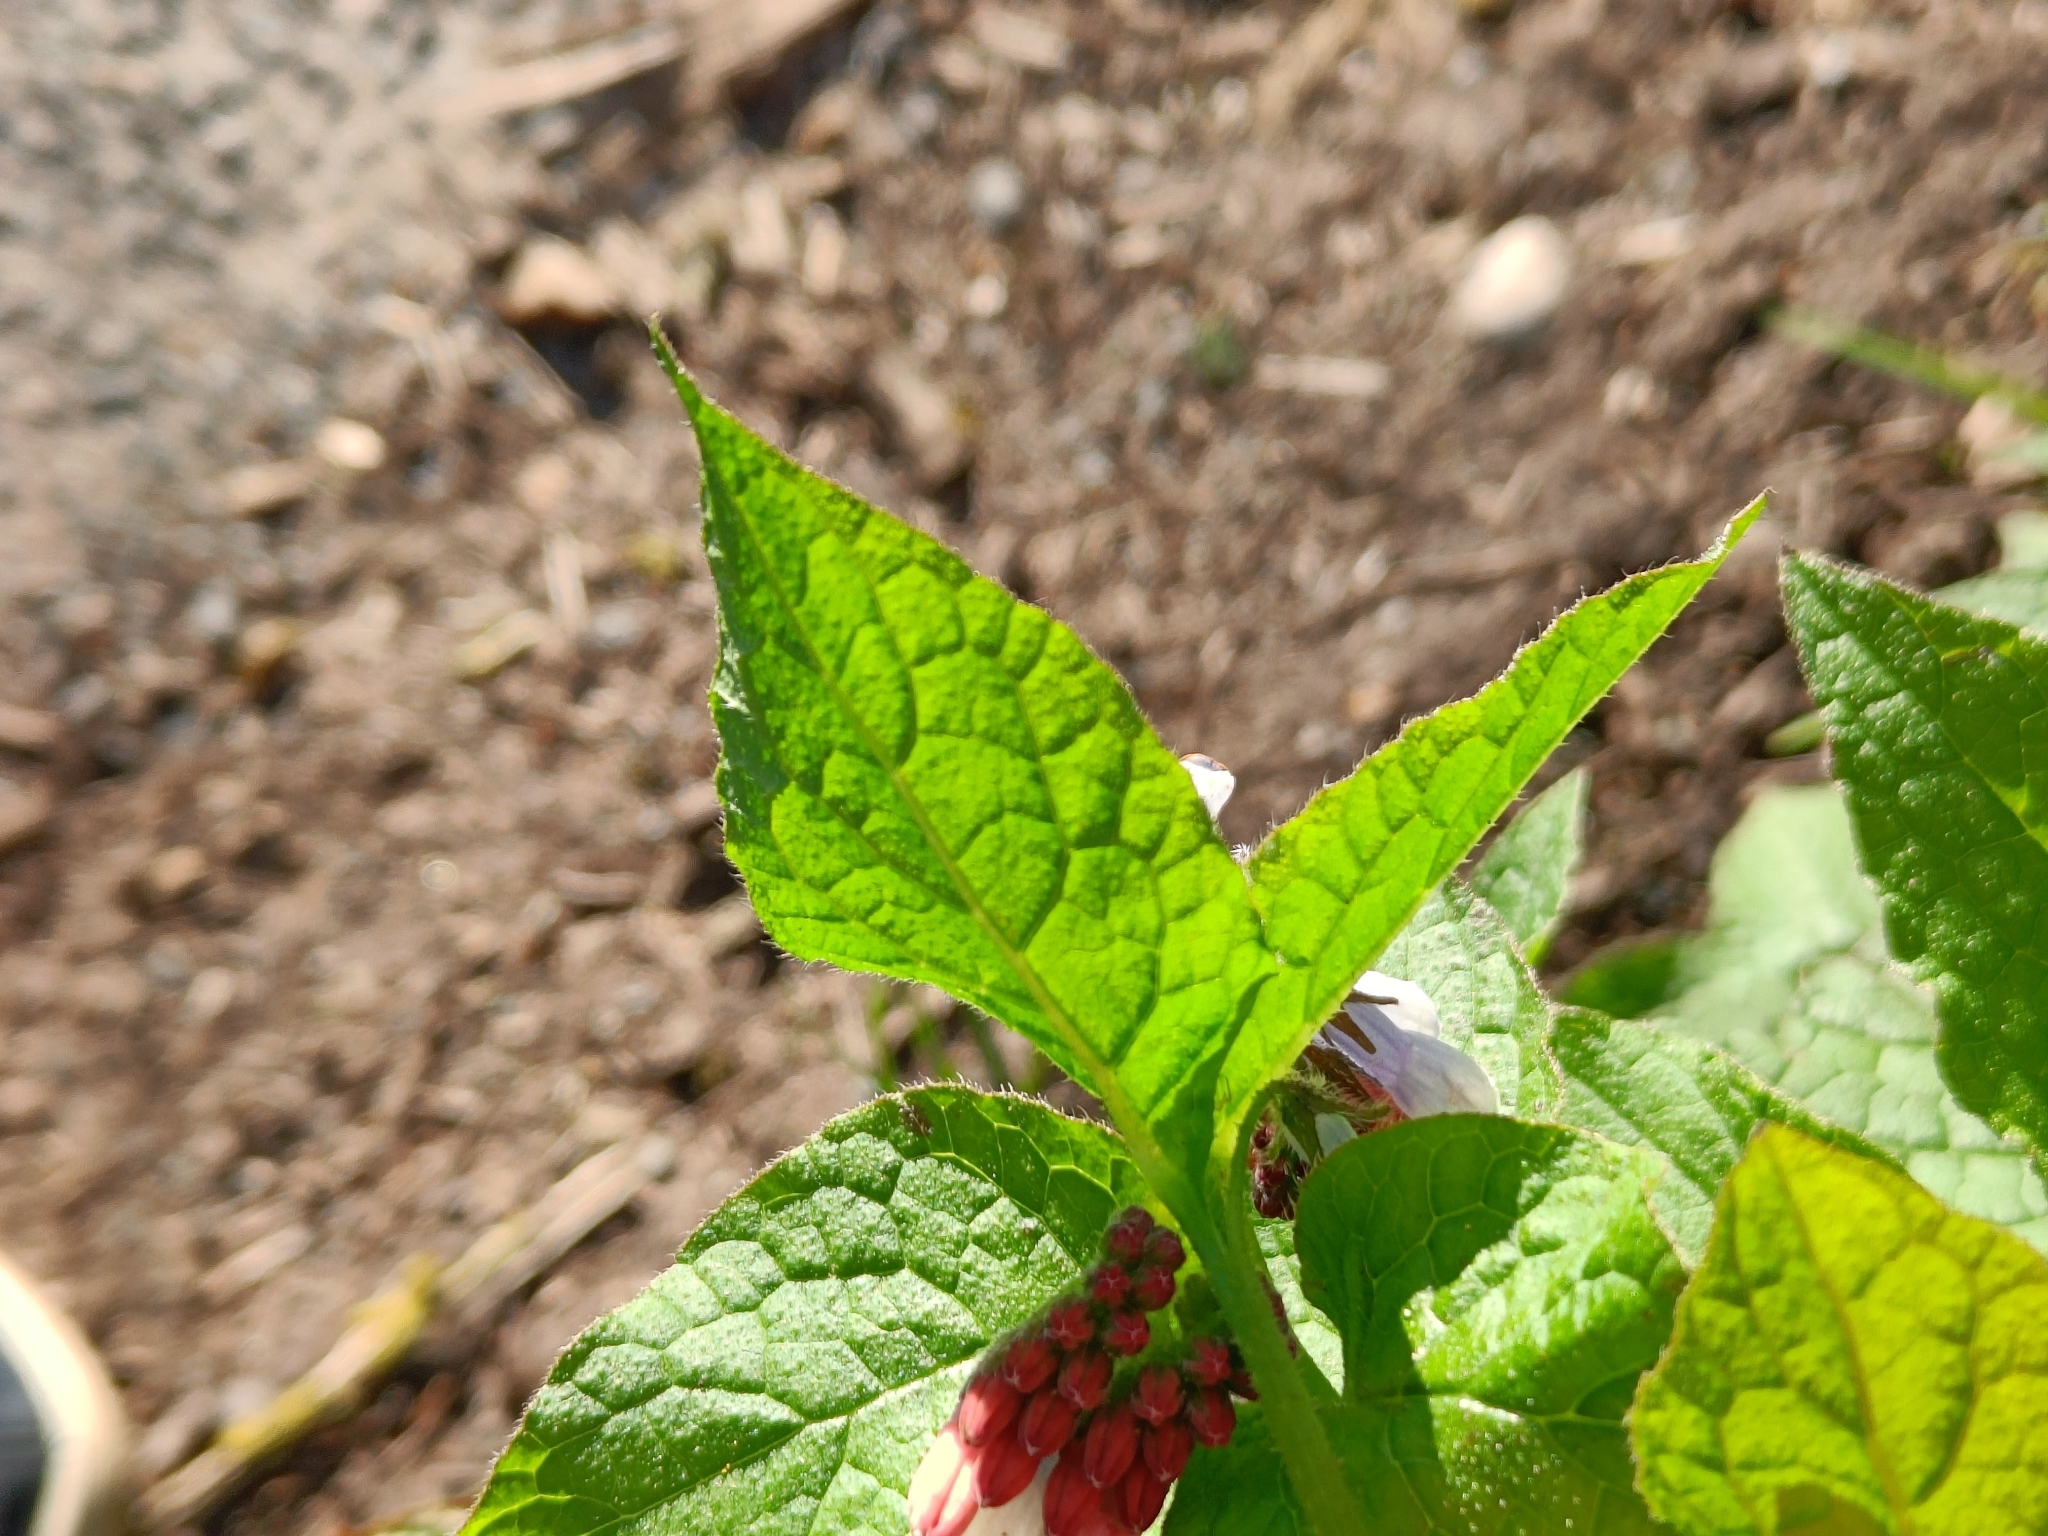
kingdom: Plantae
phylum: Tracheophyta
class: Magnoliopsida
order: Boraginales
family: Boraginaceae
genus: Symphytum
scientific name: Symphytum hidcotense
